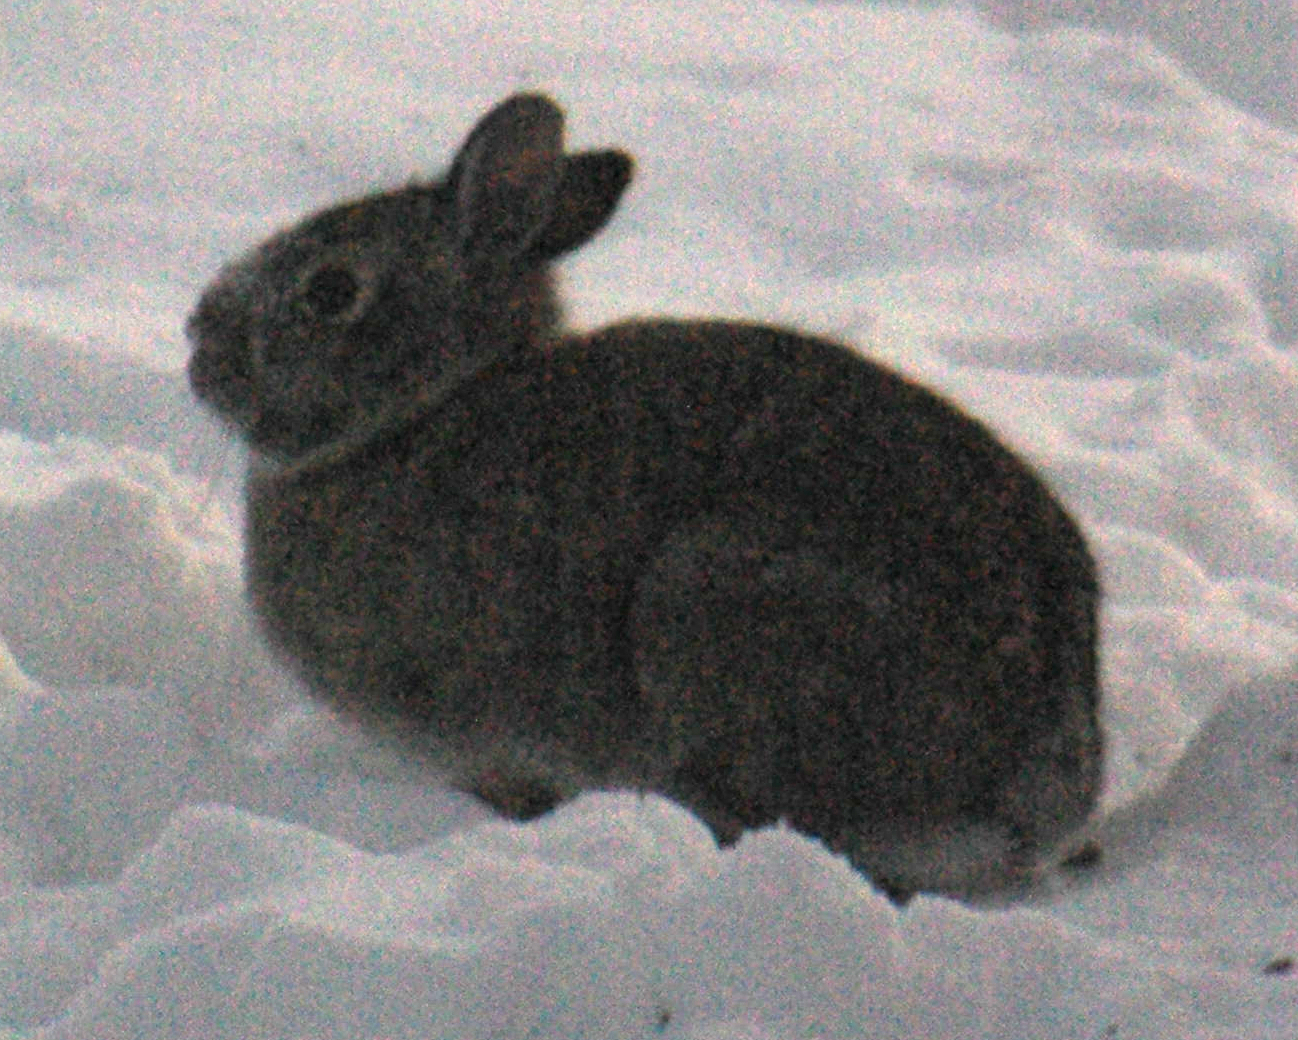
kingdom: Animalia
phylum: Chordata
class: Mammalia
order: Lagomorpha
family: Leporidae
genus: Sylvilagus
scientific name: Sylvilagus floridanus
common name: Eastern cottontail
